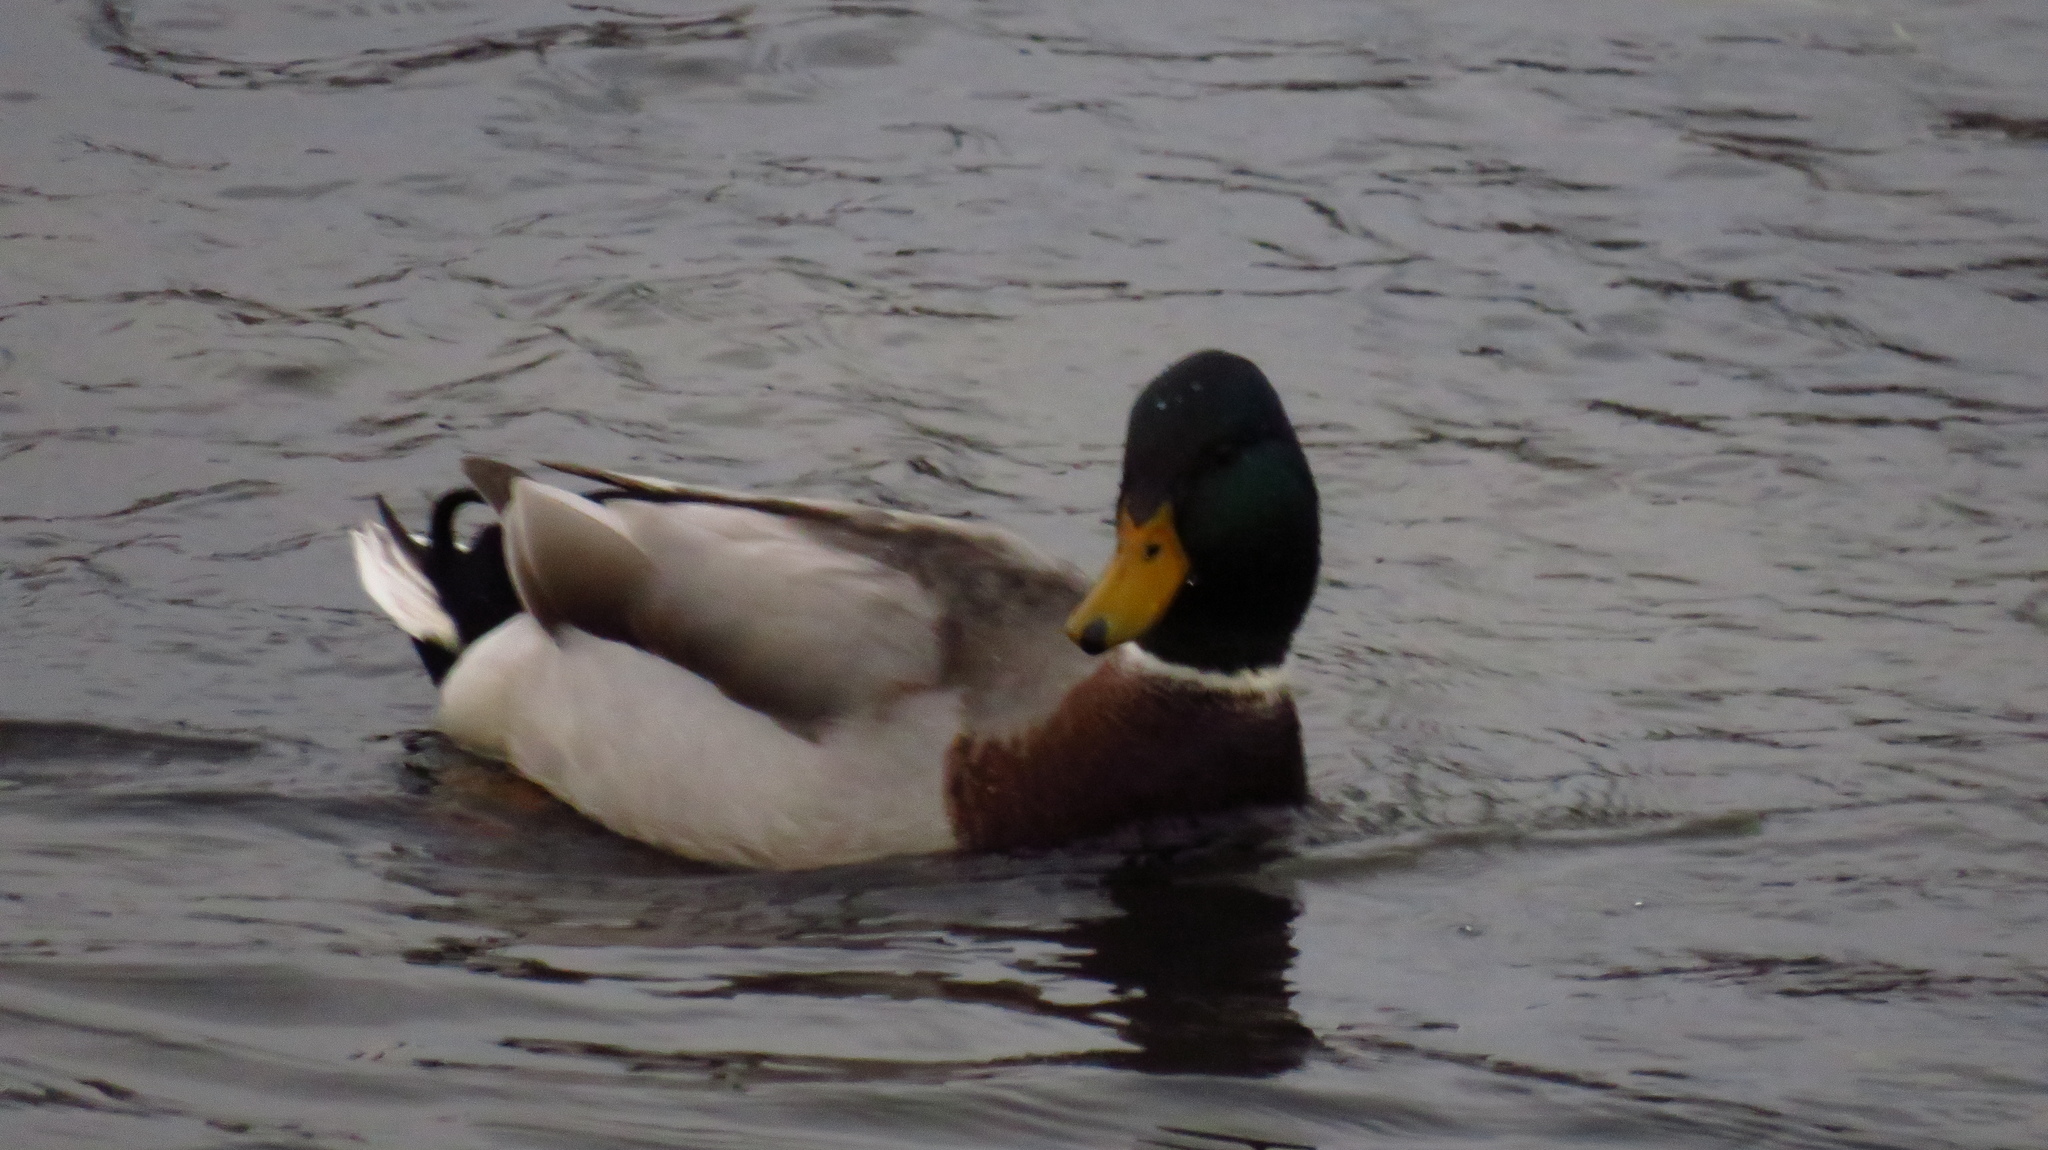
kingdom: Animalia
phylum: Chordata
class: Aves
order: Anseriformes
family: Anatidae
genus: Anas
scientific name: Anas platyrhynchos
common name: Mallard
